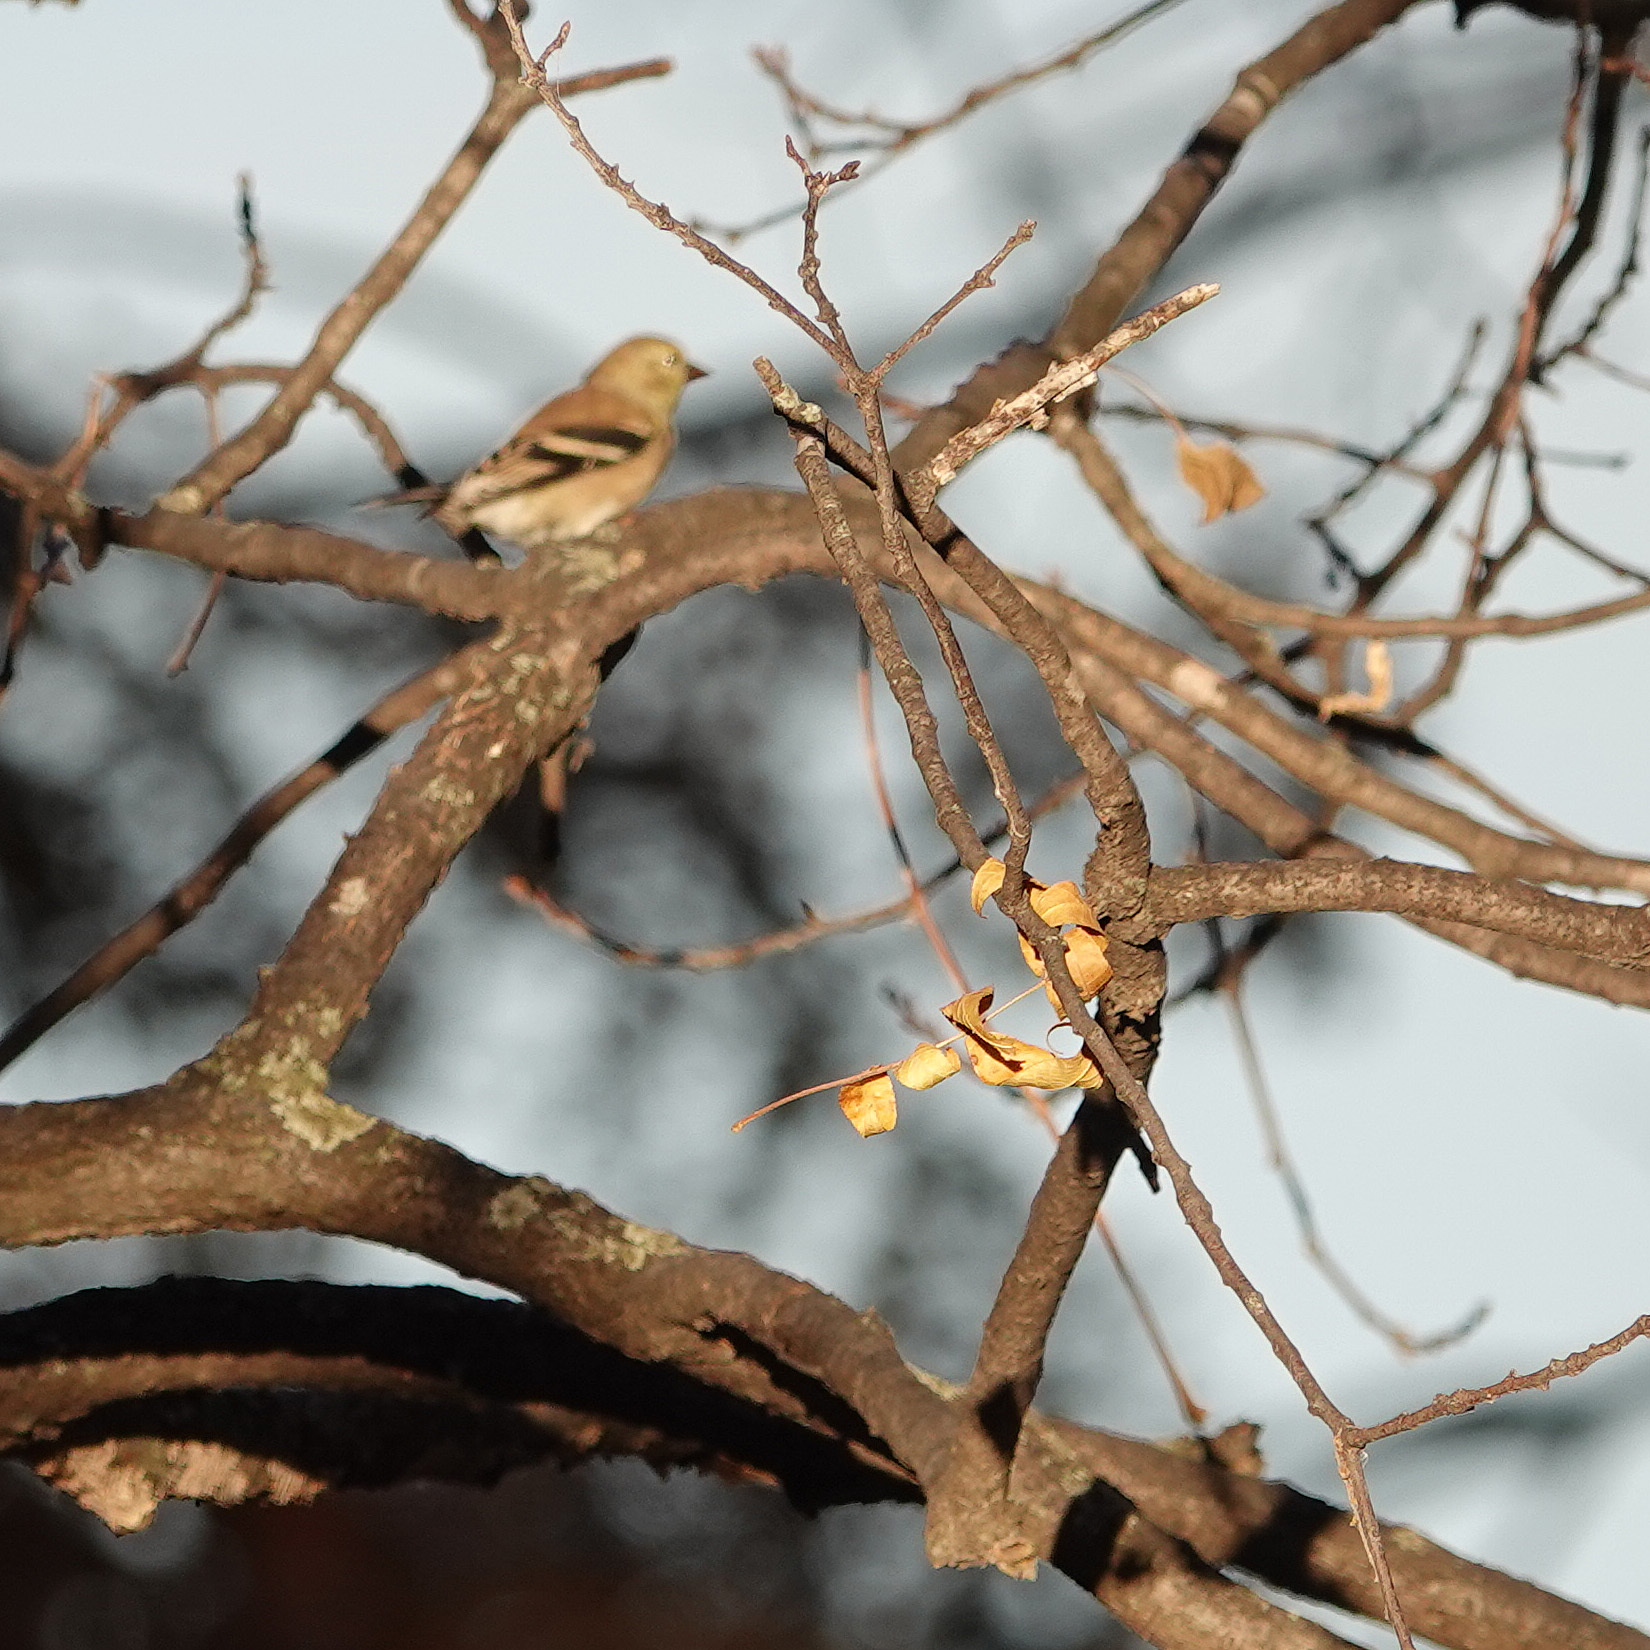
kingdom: Animalia
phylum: Chordata
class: Aves
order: Passeriformes
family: Fringillidae
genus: Spinus
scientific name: Spinus tristis
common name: American goldfinch
